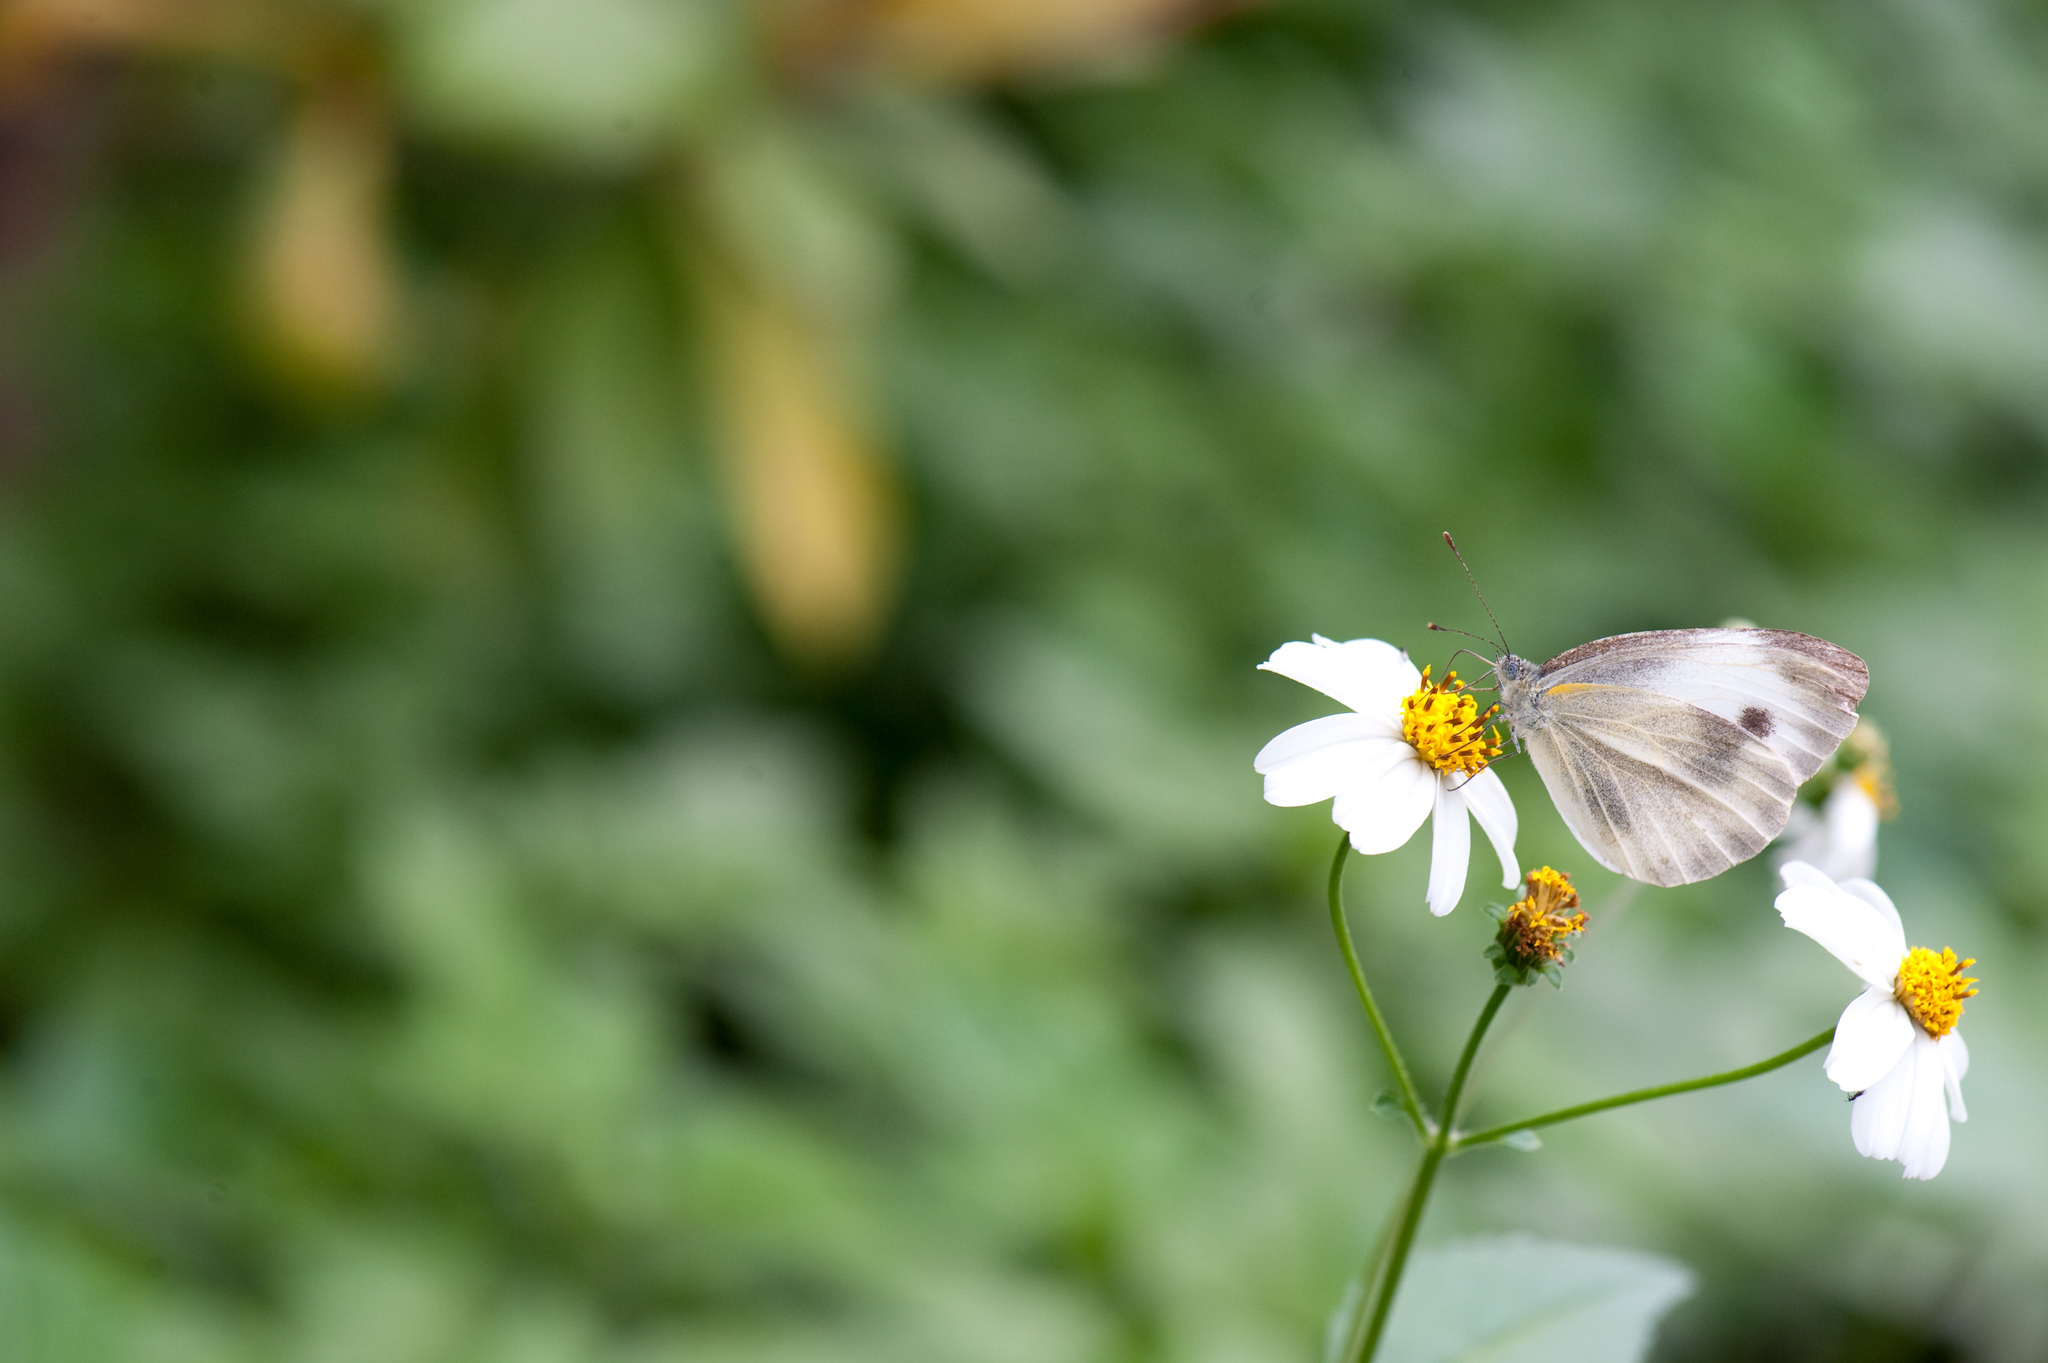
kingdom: Animalia
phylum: Arthropoda
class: Insecta
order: Lepidoptera
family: Pieridae
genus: Pieris
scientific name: Pieris canidia
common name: Indian cabbage white
